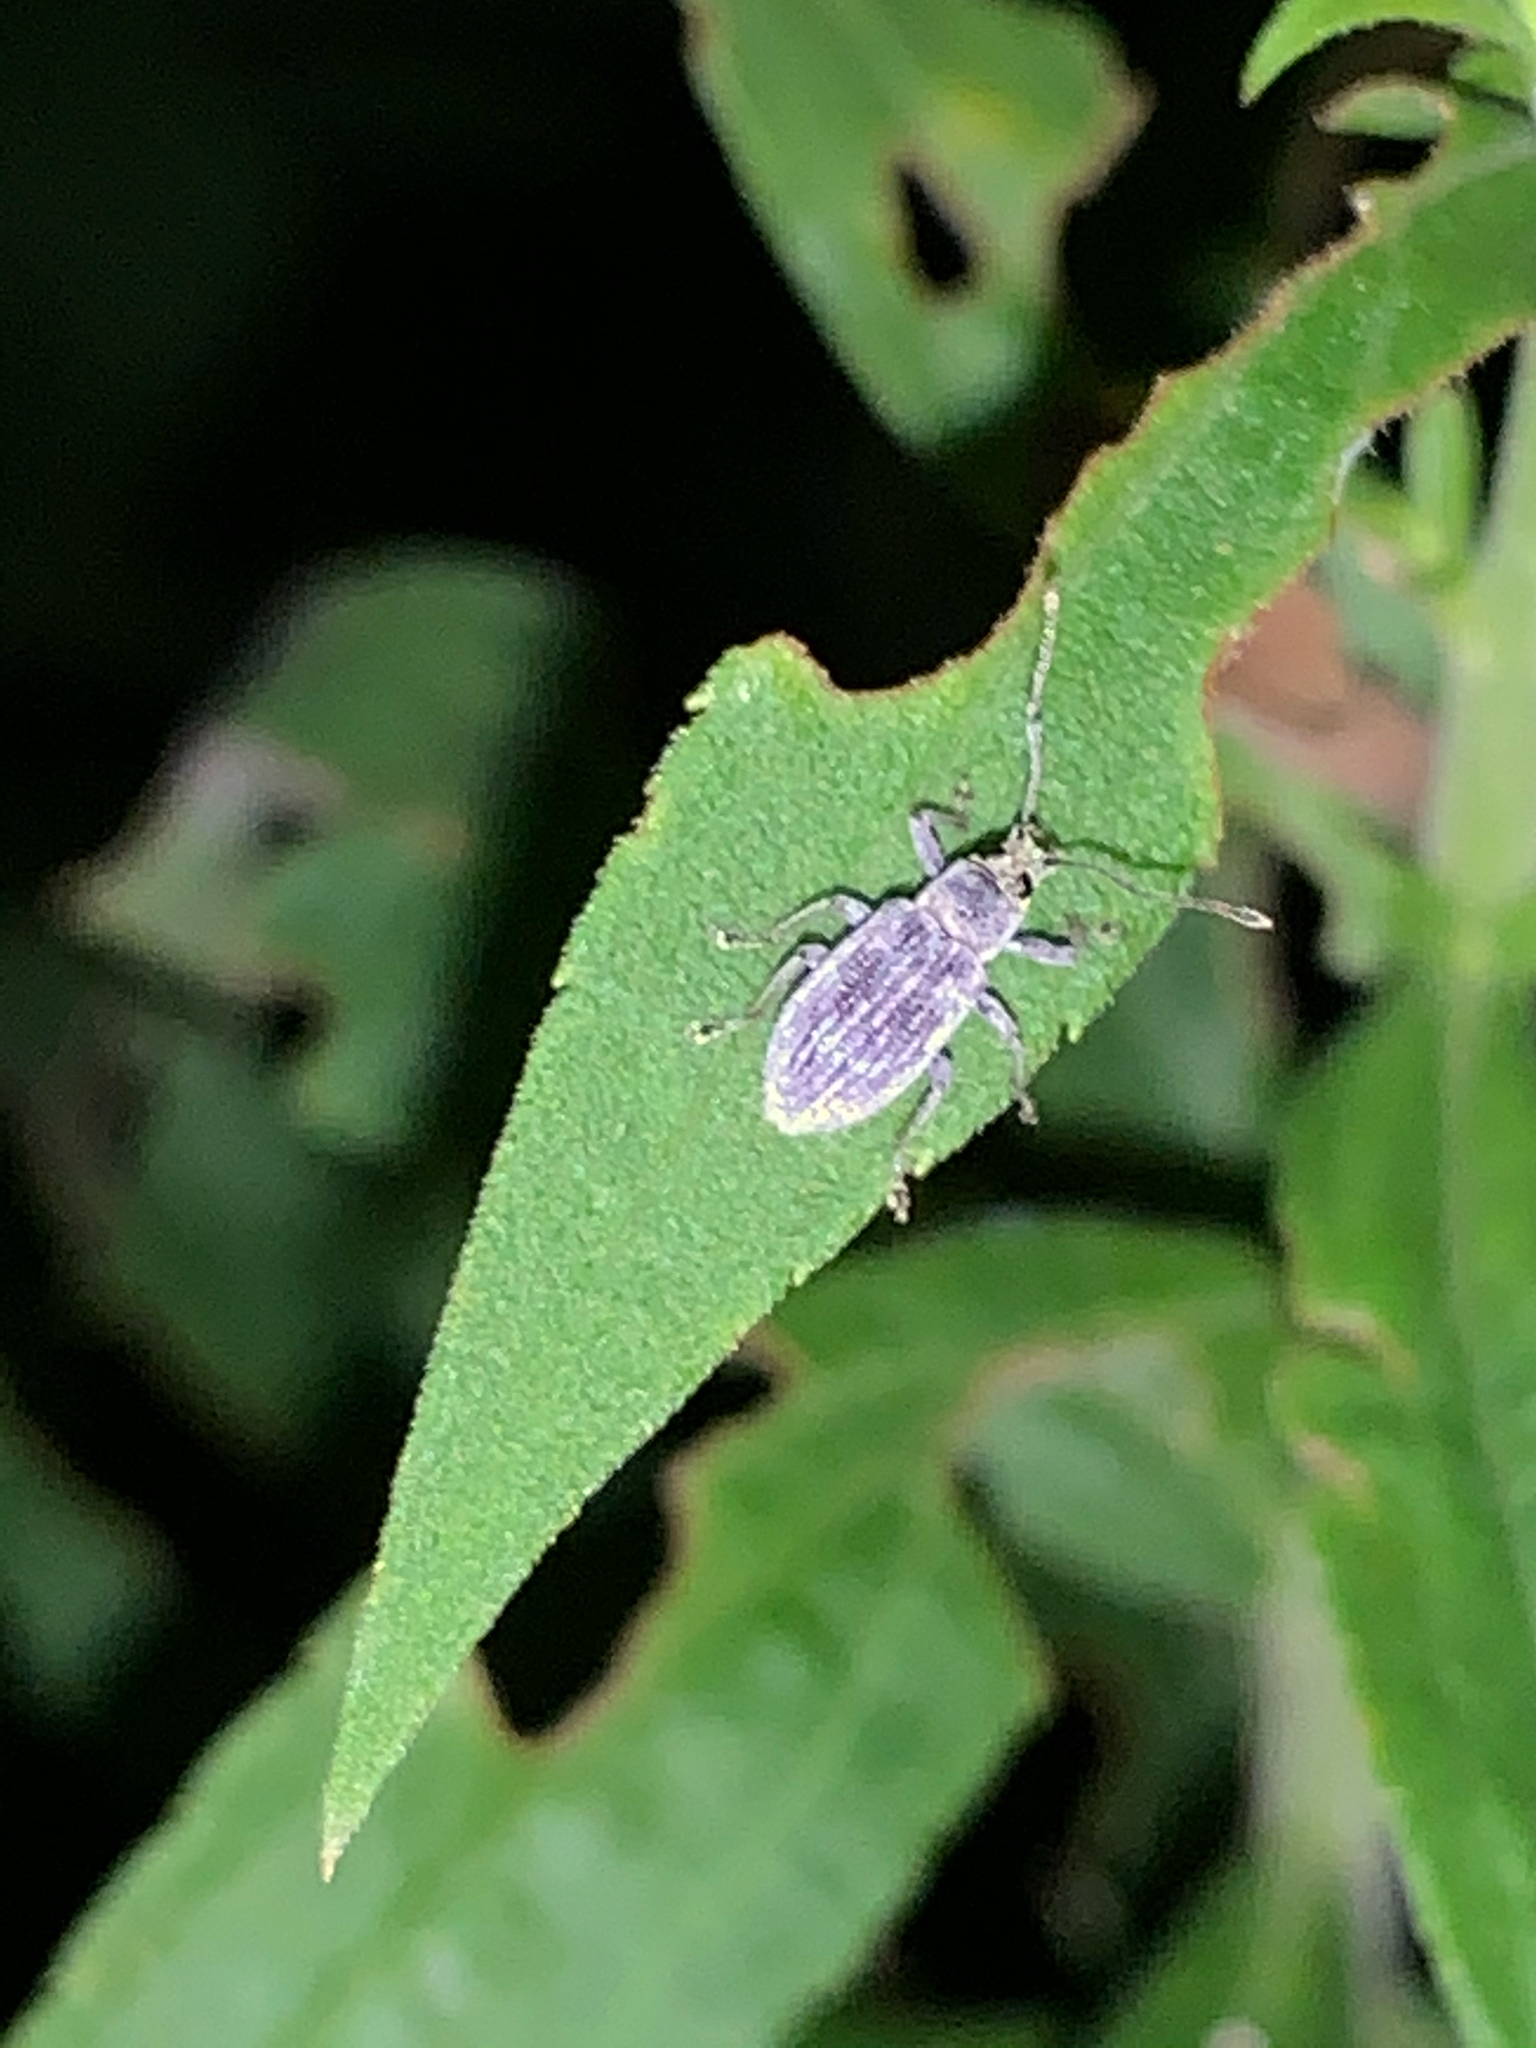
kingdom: Animalia
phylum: Arthropoda
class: Insecta
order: Coleoptera
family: Curculionidae
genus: Cyrtepistomus
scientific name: Cyrtepistomus castaneus
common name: Weevil
